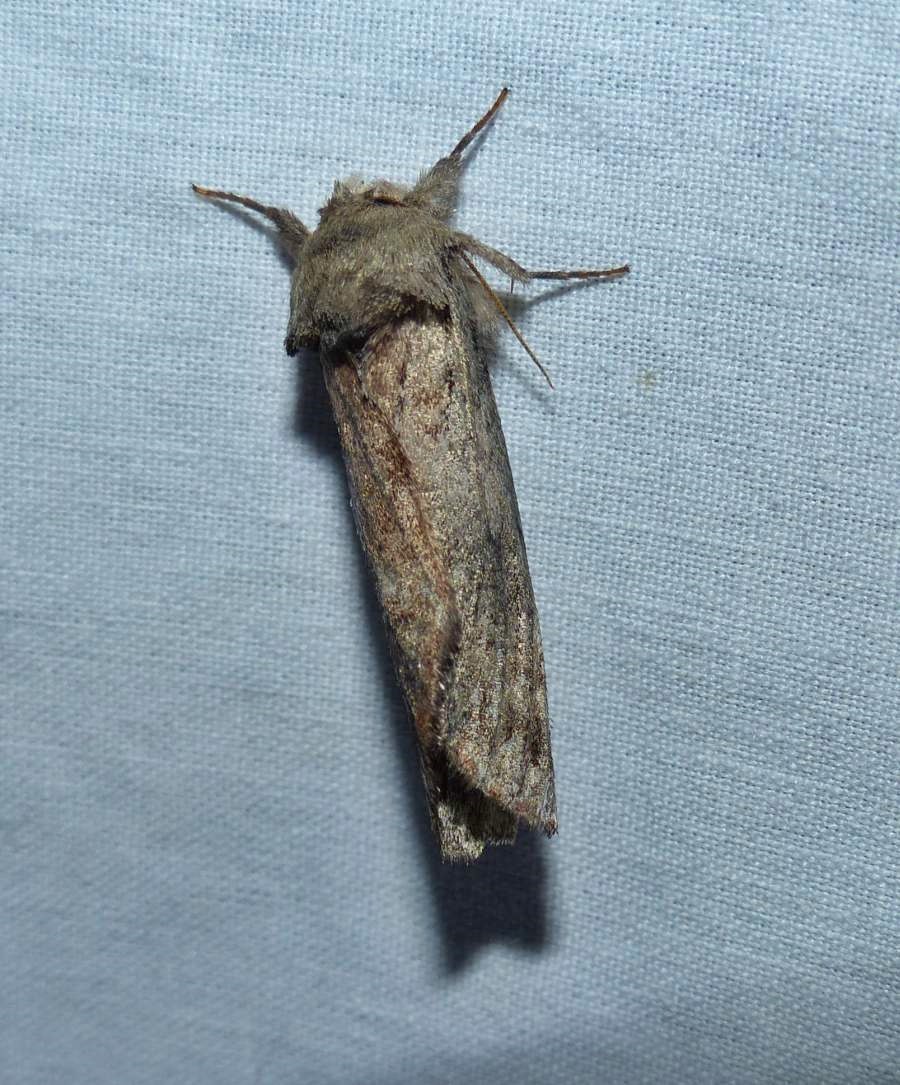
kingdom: Animalia
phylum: Arthropoda
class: Insecta
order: Lepidoptera
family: Notodontidae
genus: Schizura
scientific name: Schizura
